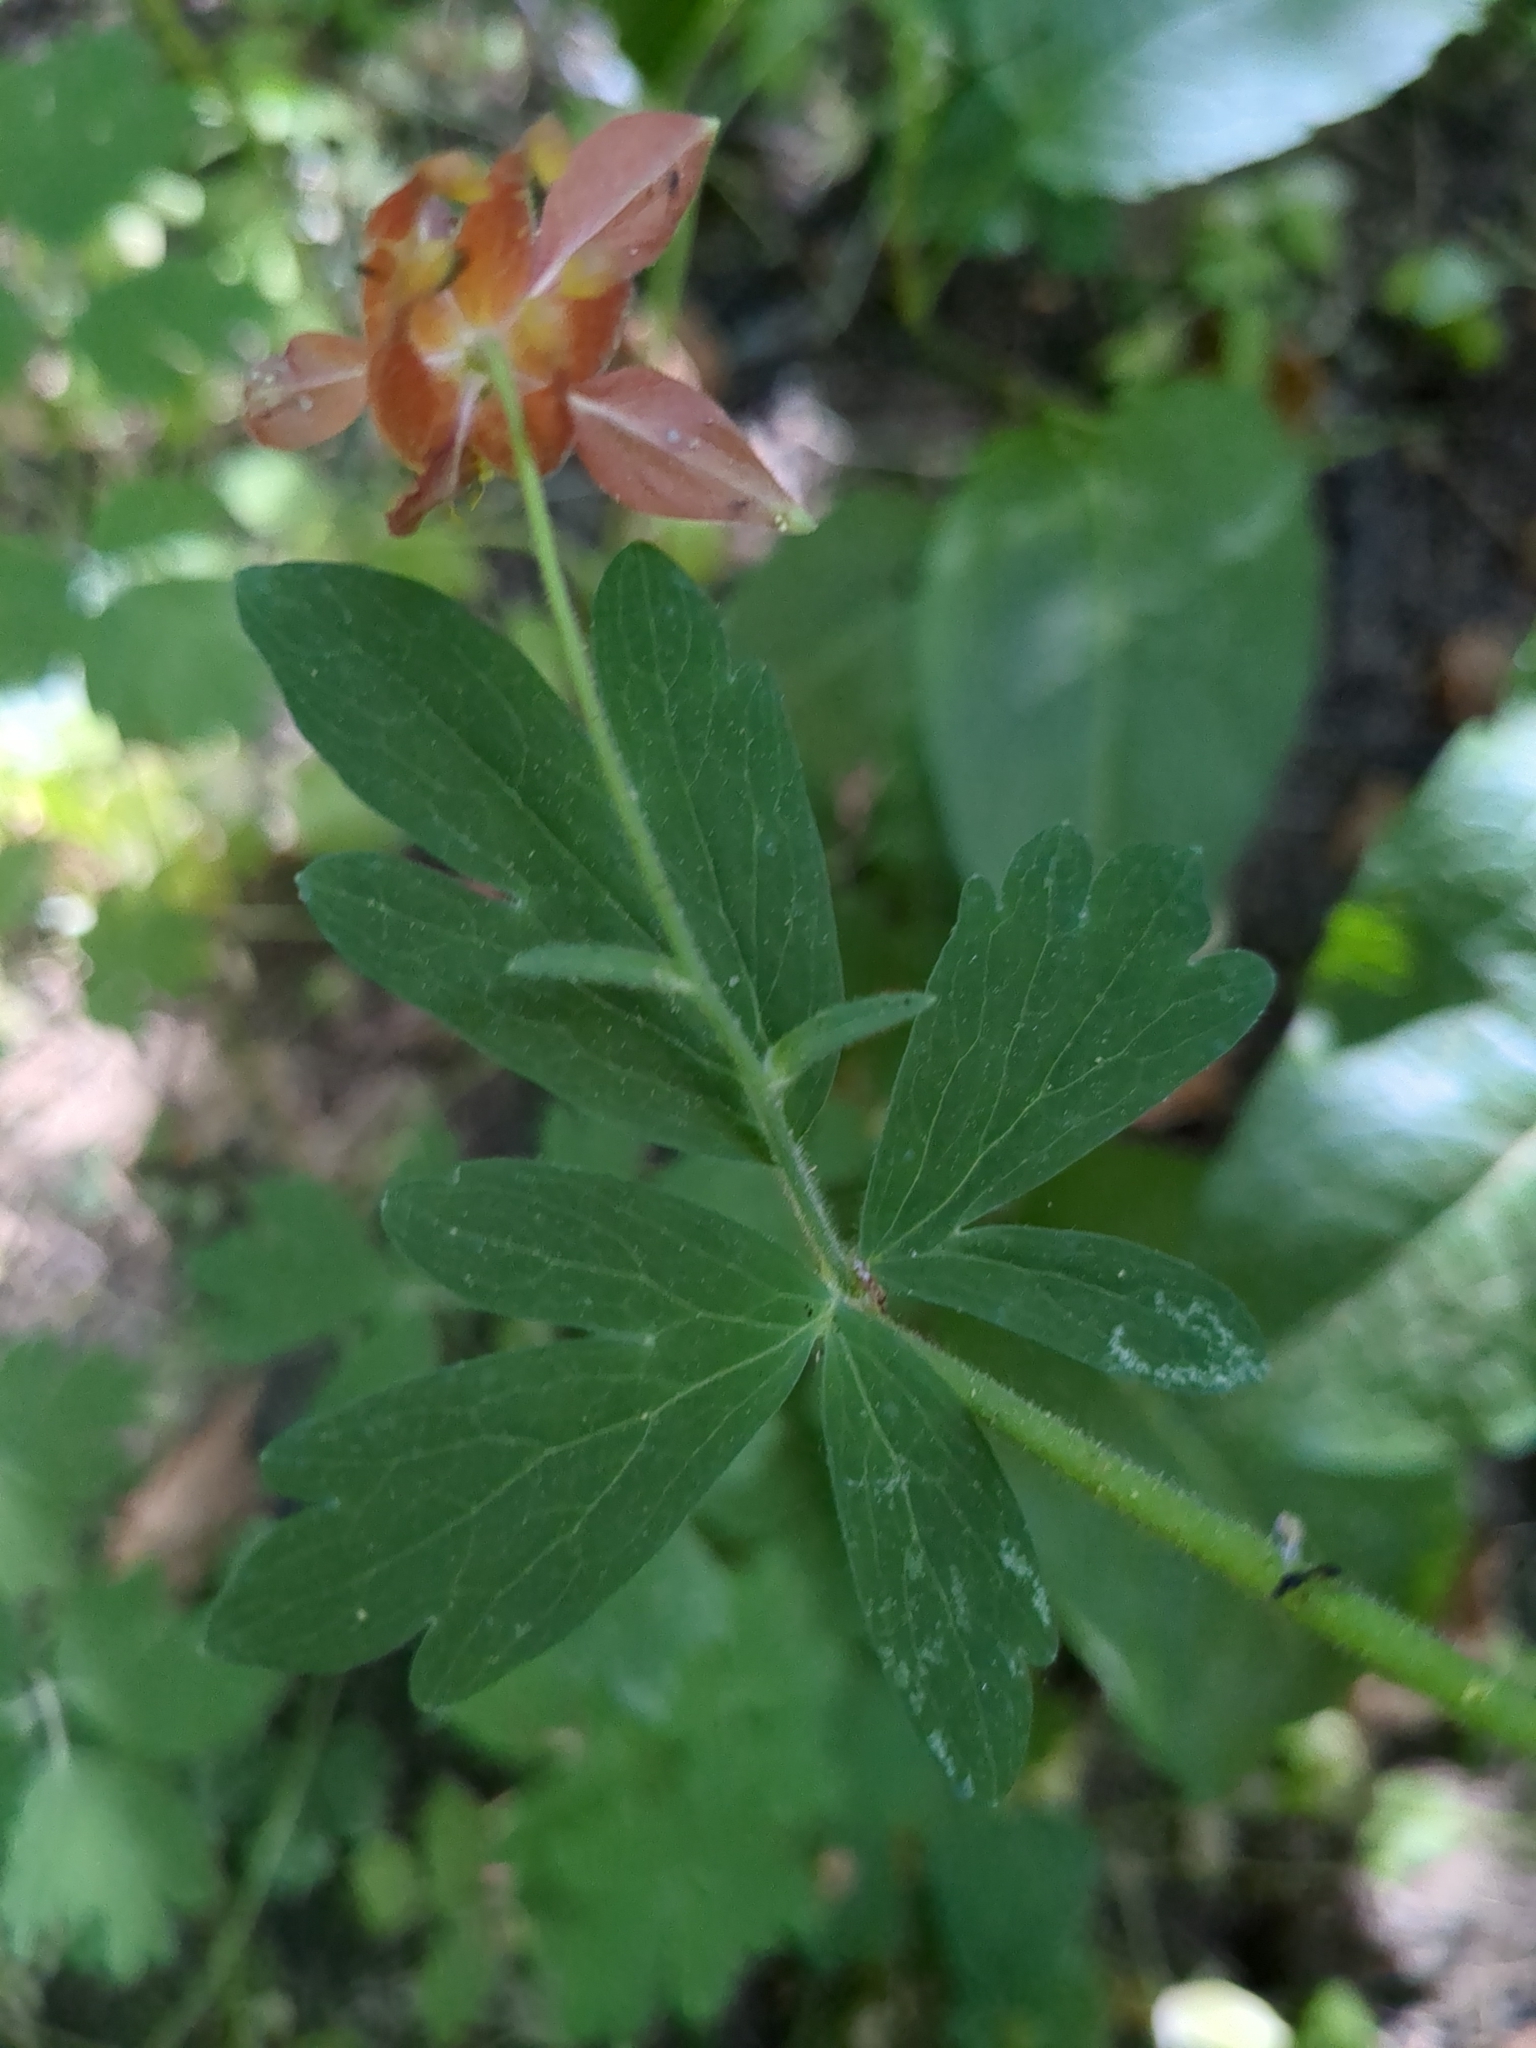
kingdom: Plantae
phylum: Tracheophyta
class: Magnoliopsida
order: Ranunculales
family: Ranunculaceae
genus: Aquilegia
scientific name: Aquilegia formosa
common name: Sitka columbine
